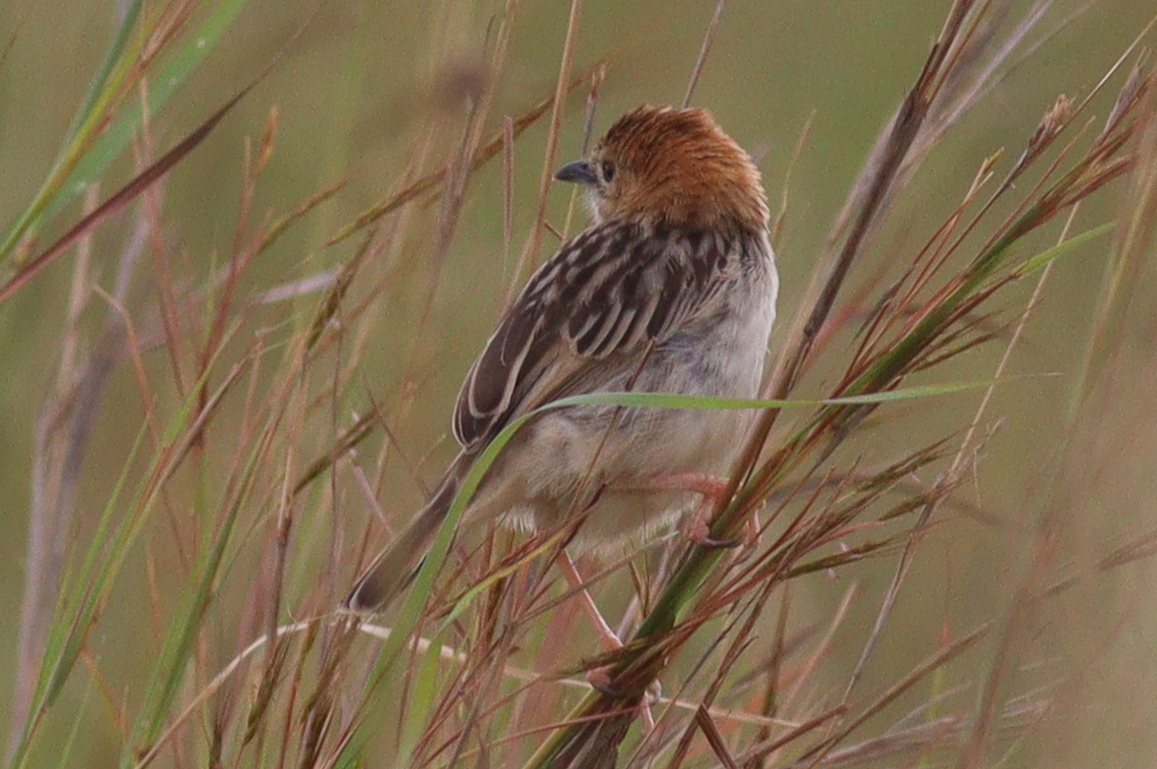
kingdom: Animalia
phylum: Chordata
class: Aves
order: Passeriformes
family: Cisticolidae
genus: Cisticola
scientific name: Cisticola robustus
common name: Stout cisticola
